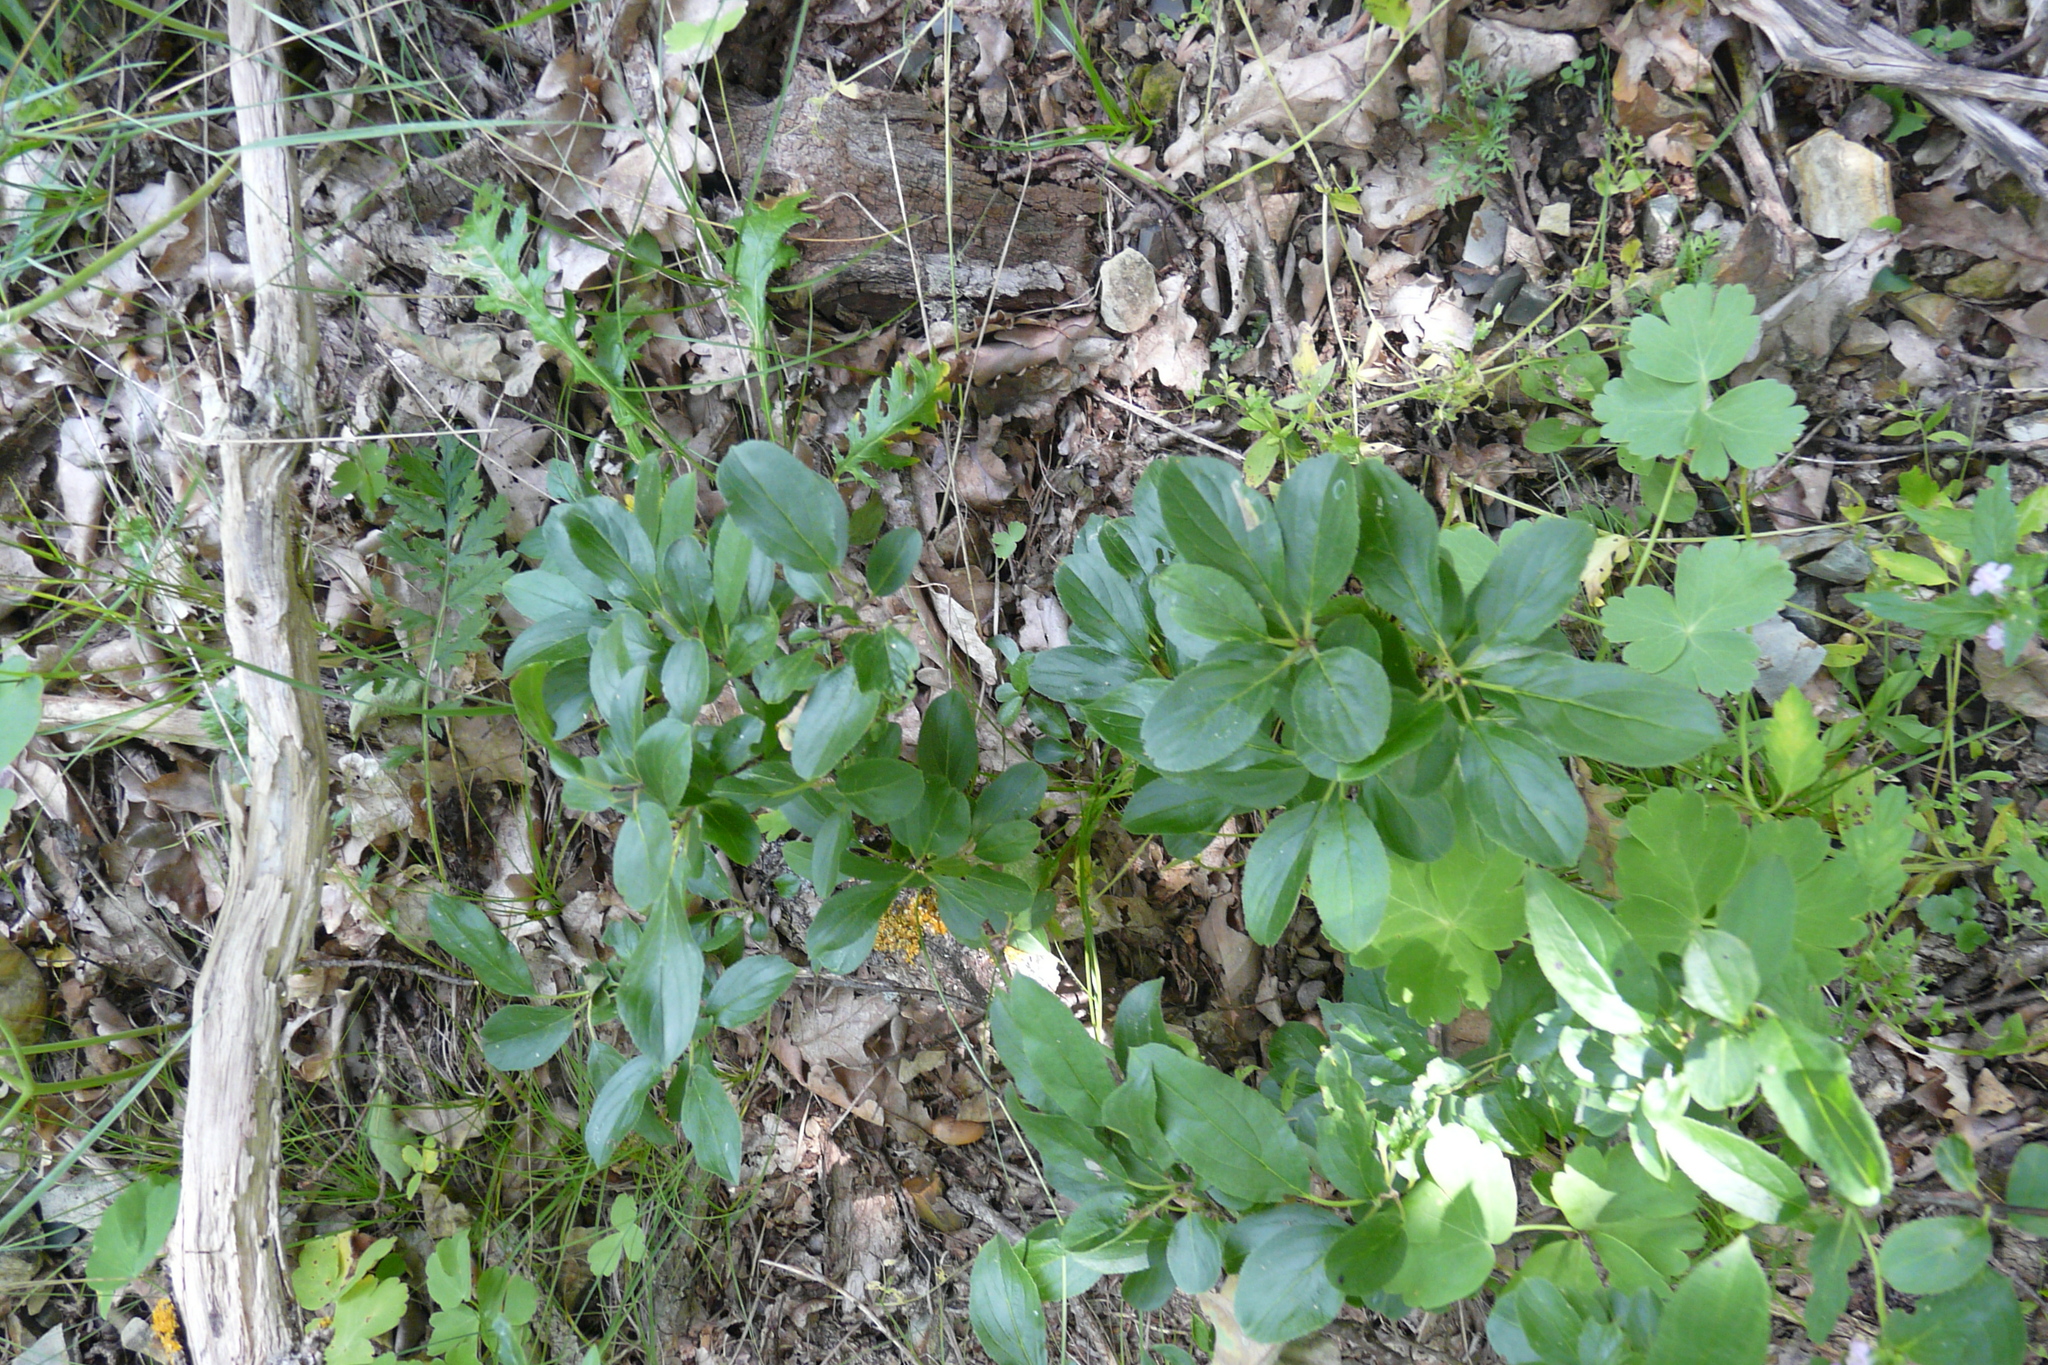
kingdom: Plantae
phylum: Tracheophyta
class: Magnoliopsida
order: Rosales
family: Rhamnaceae
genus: Rhamnus
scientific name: Rhamnus cathartica
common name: Common buckthorn
